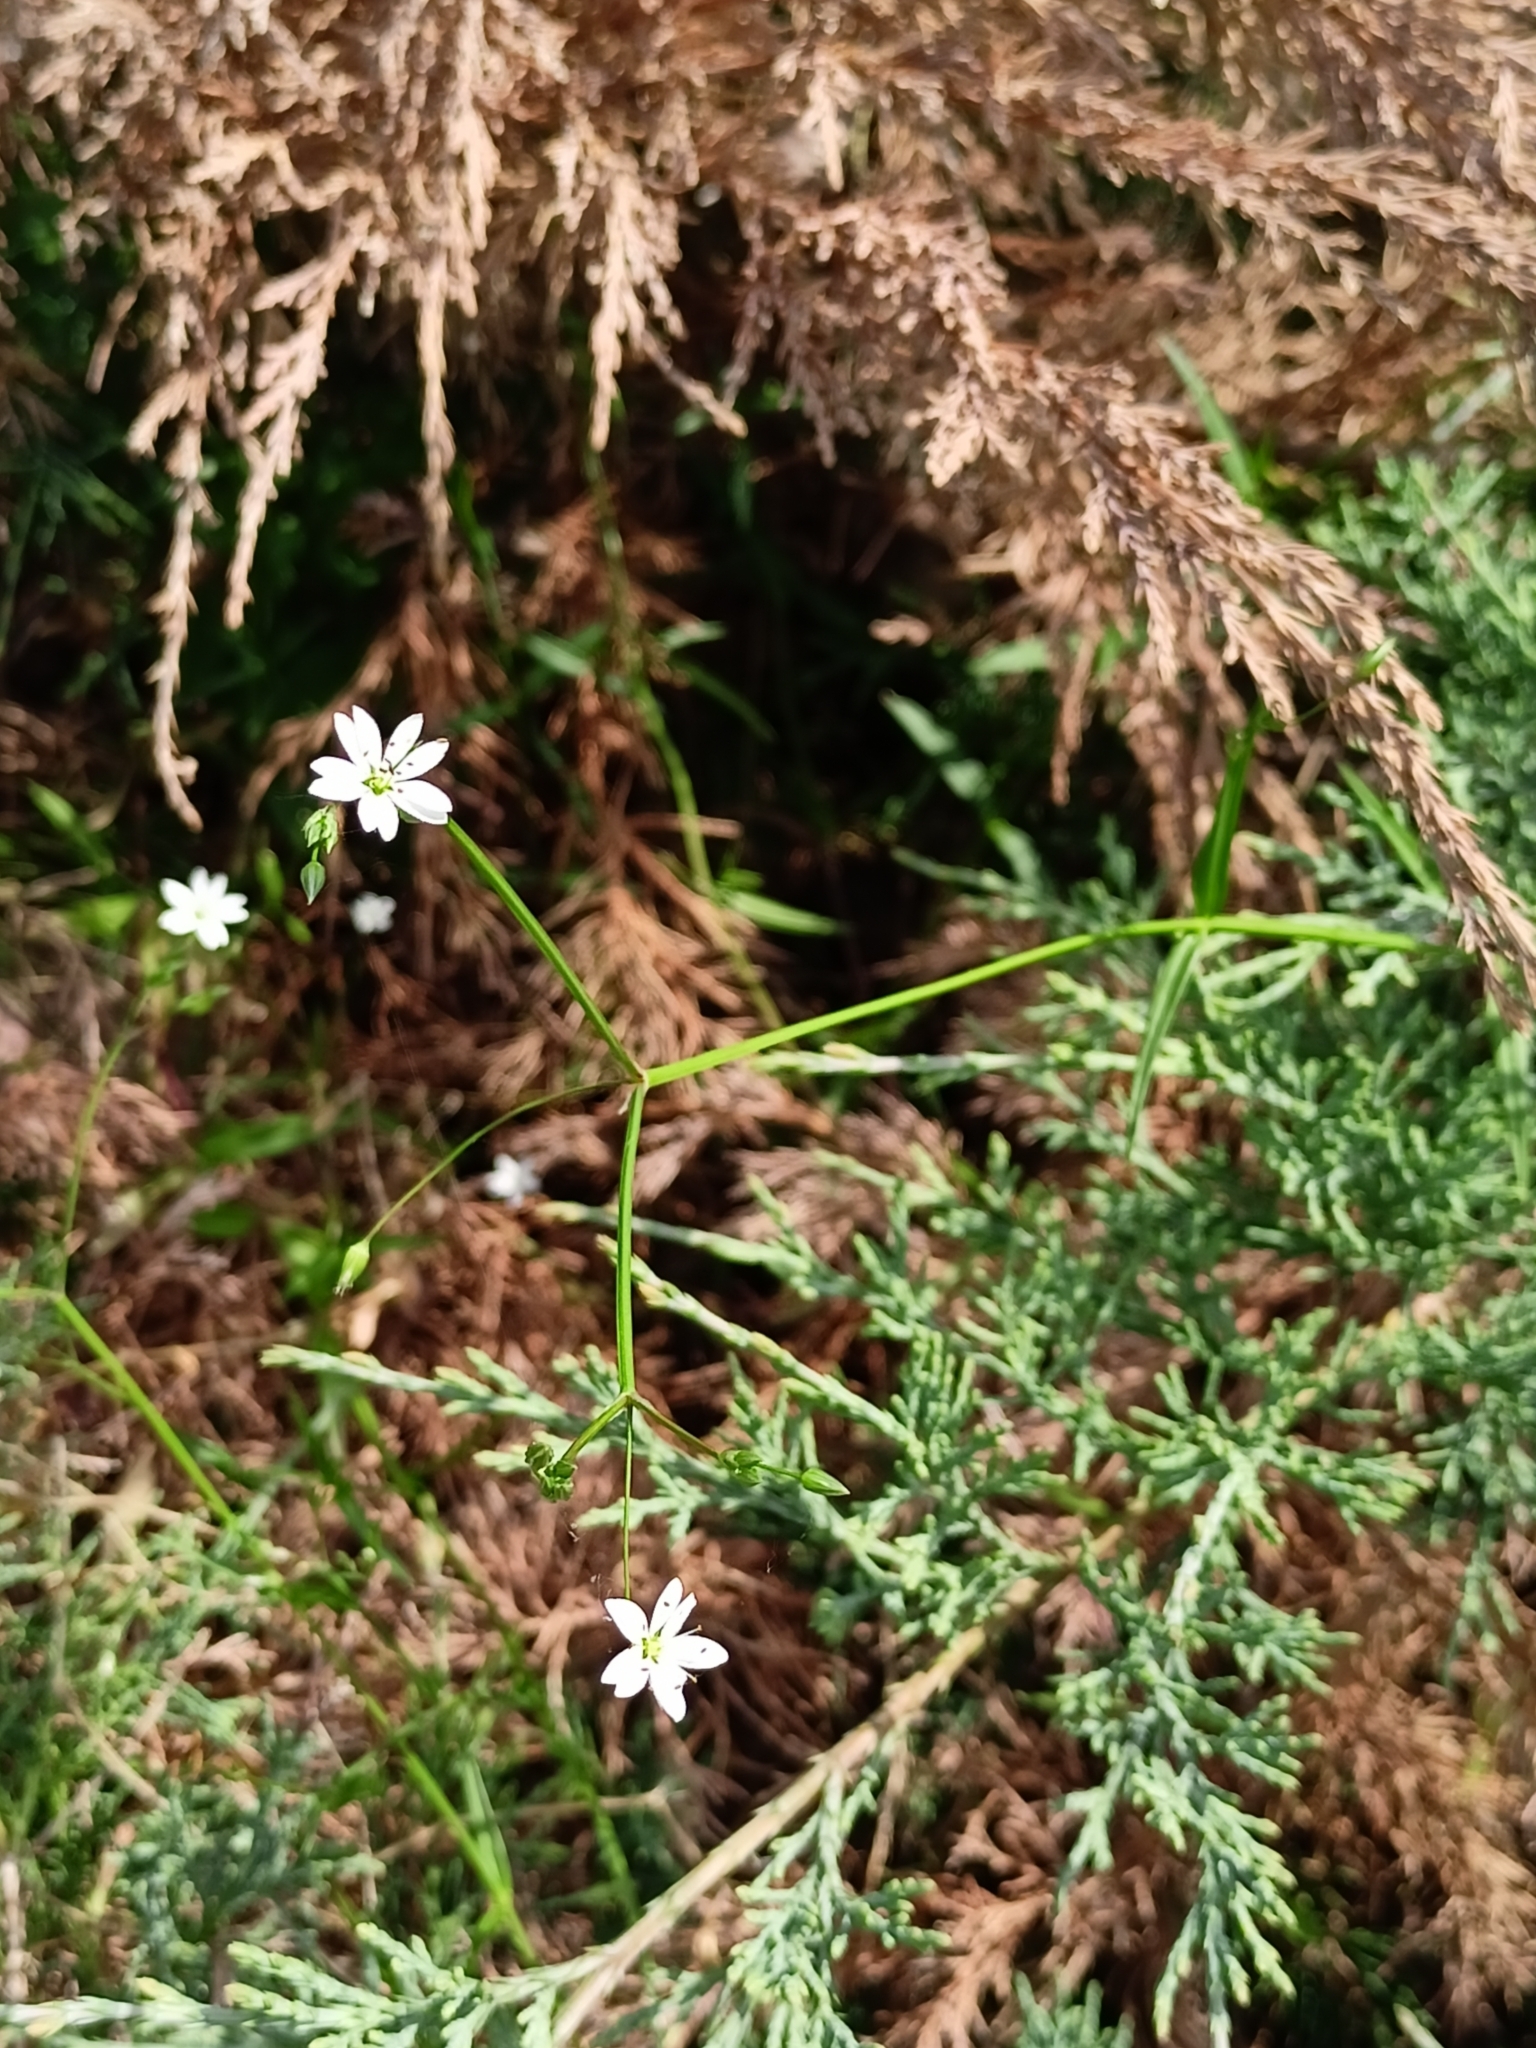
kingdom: Plantae
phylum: Tracheophyta
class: Magnoliopsida
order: Caryophyllales
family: Caryophyllaceae
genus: Stellaria
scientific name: Stellaria graminea
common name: Grass-like starwort
